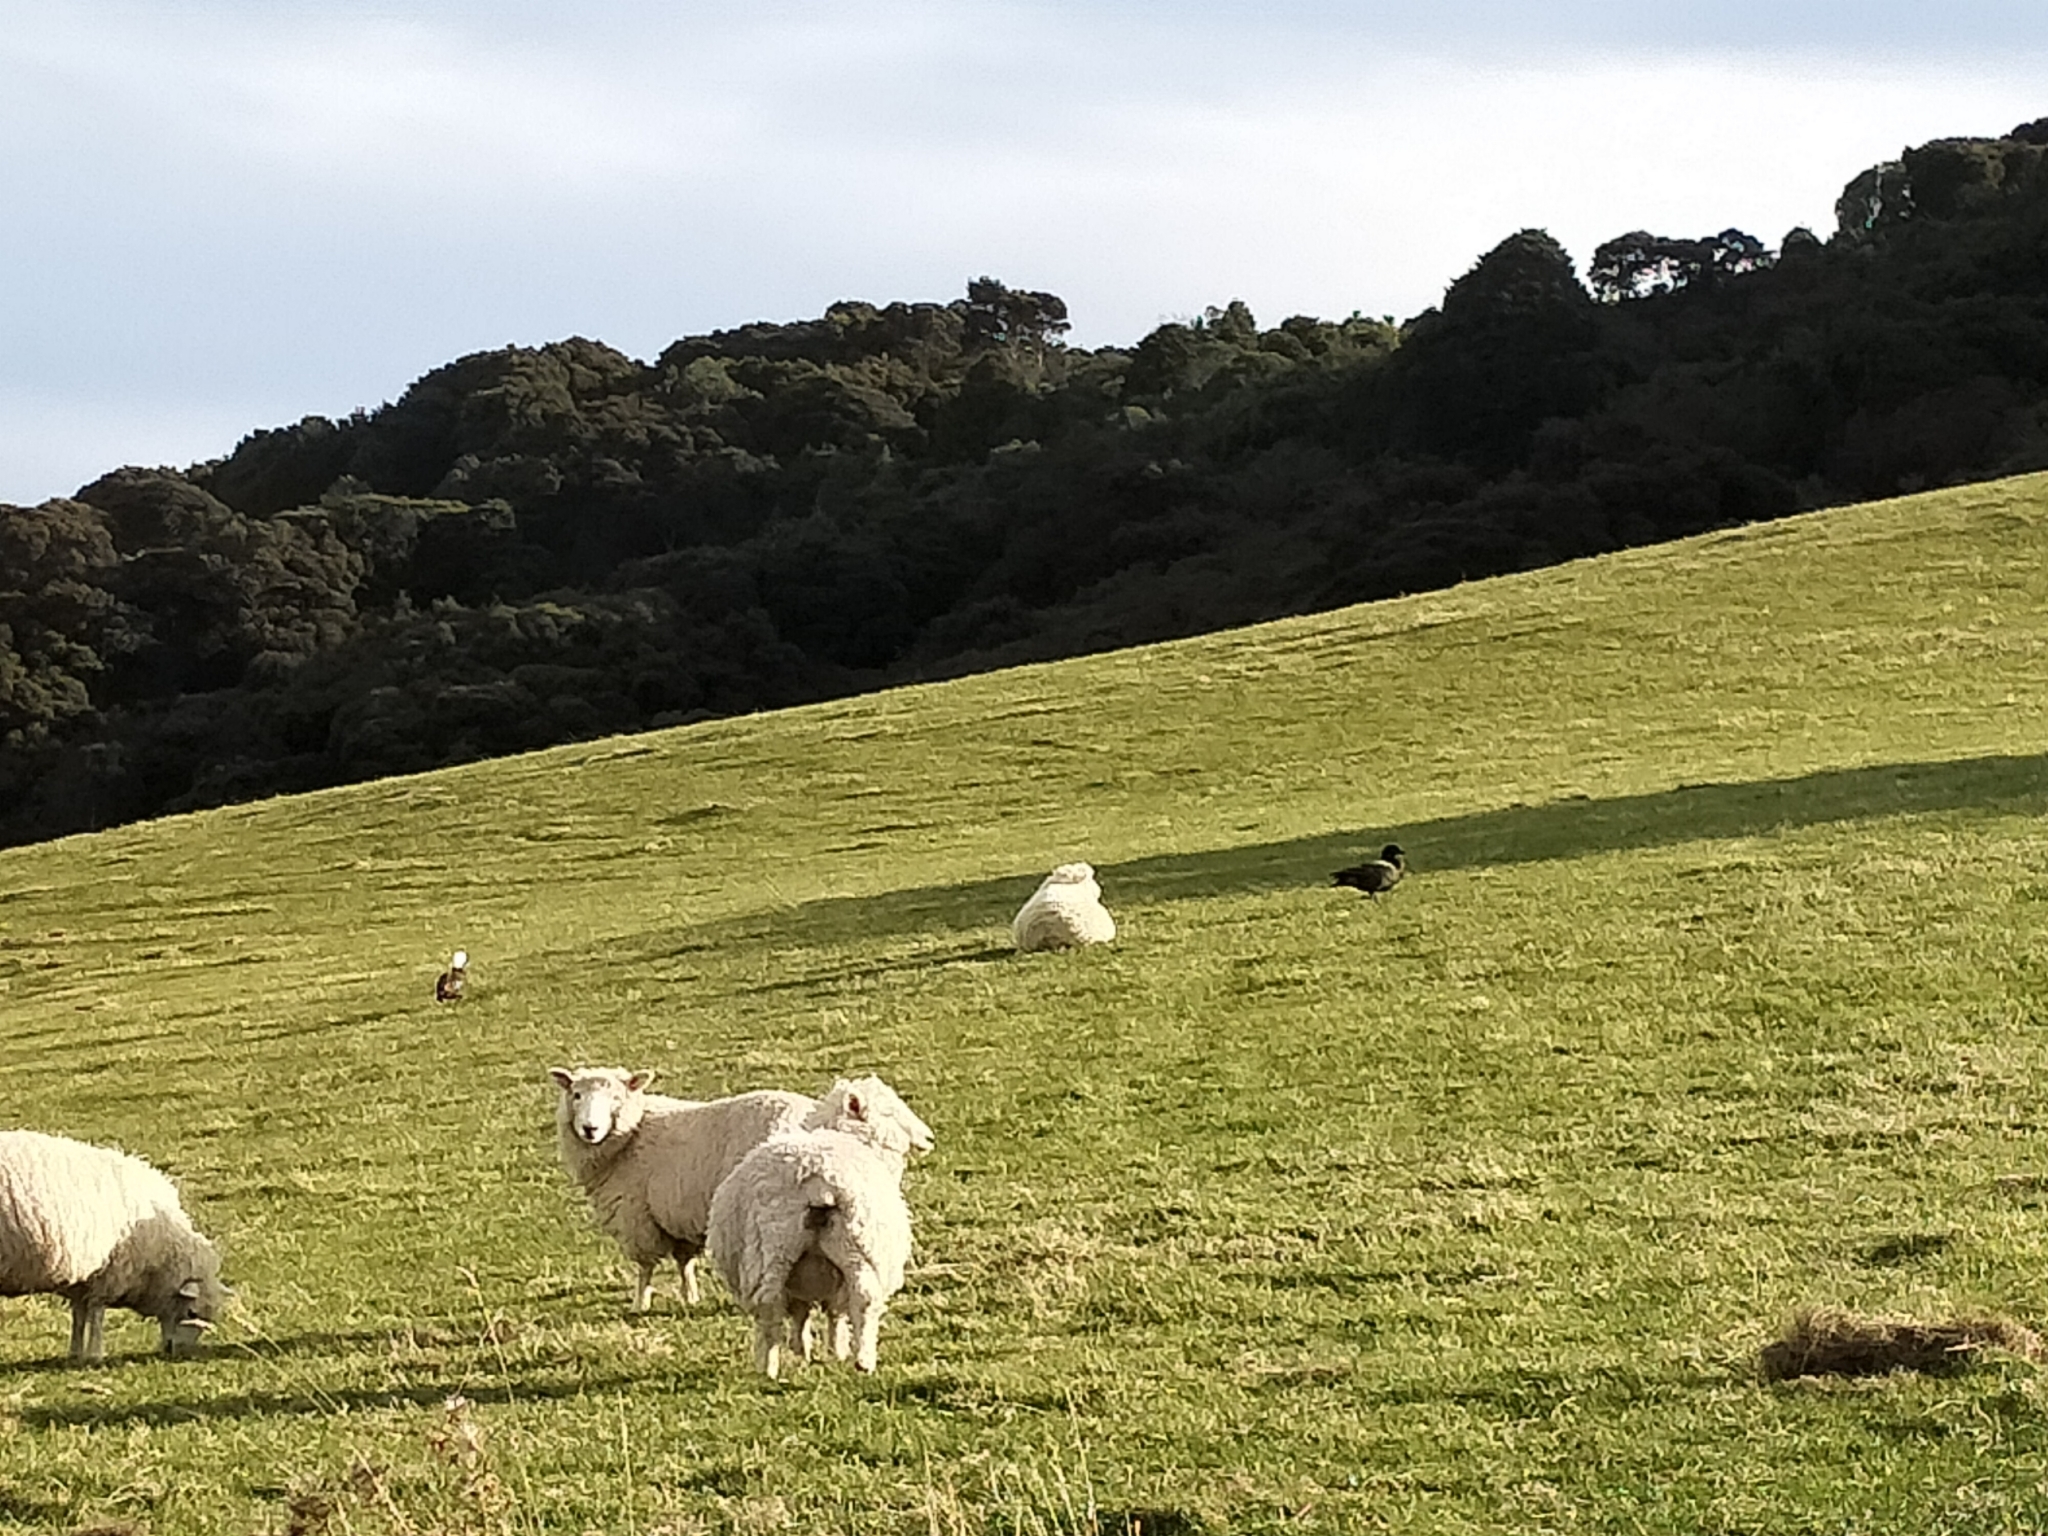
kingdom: Animalia
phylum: Chordata
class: Aves
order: Anseriformes
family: Anatidae
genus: Tadorna
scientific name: Tadorna variegata
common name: Paradise shelduck
